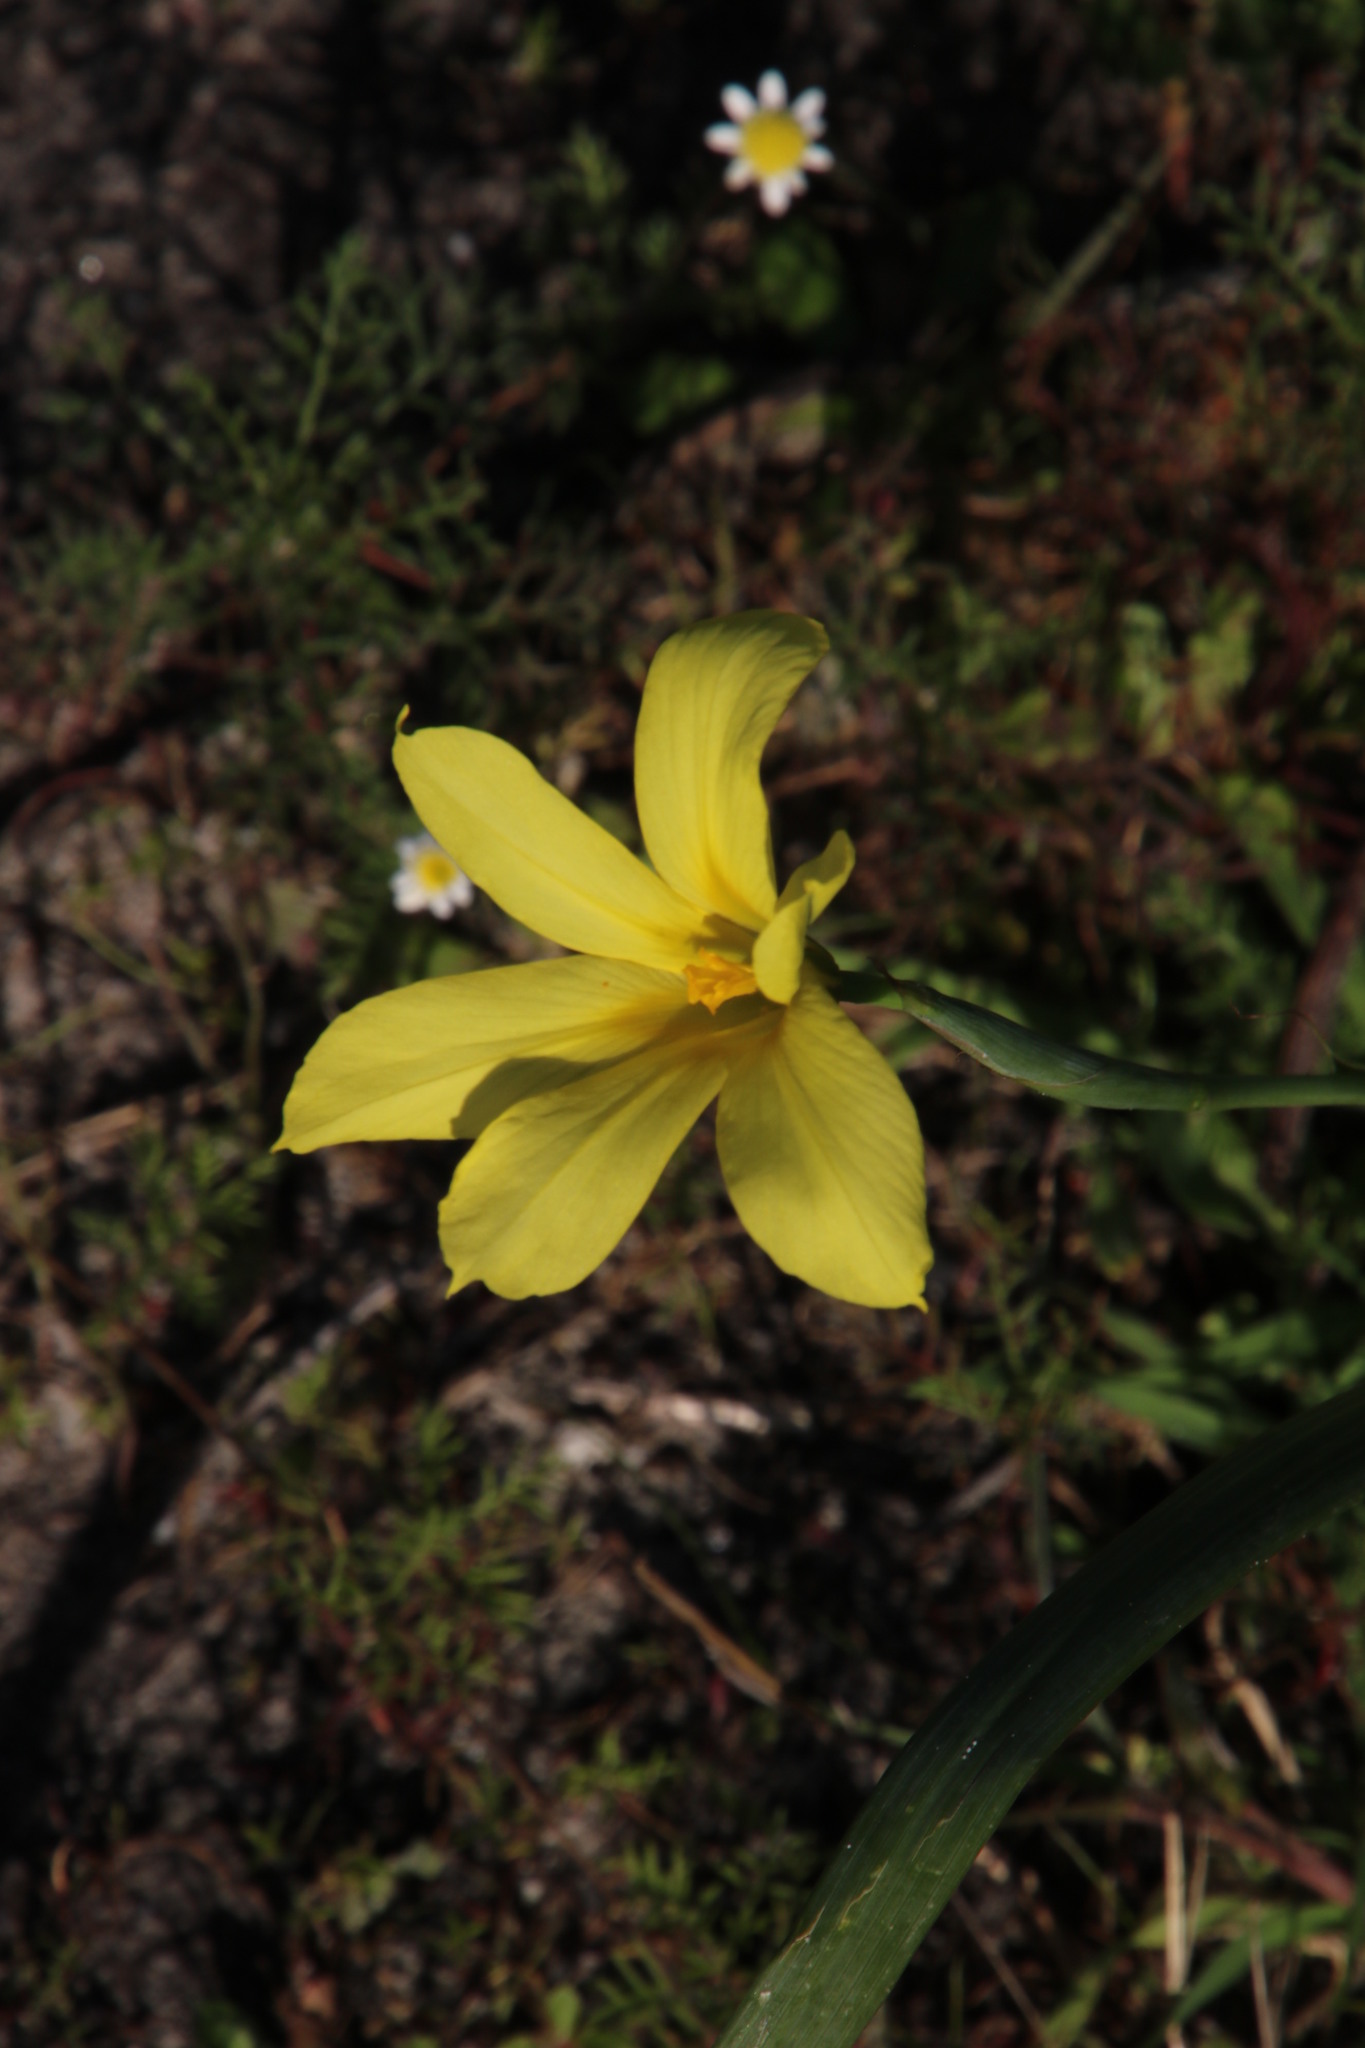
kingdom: Plantae
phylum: Tracheophyta
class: Liliopsida
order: Asparagales
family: Iridaceae
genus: Moraea
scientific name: Moraea collina
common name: Cape-tulip
